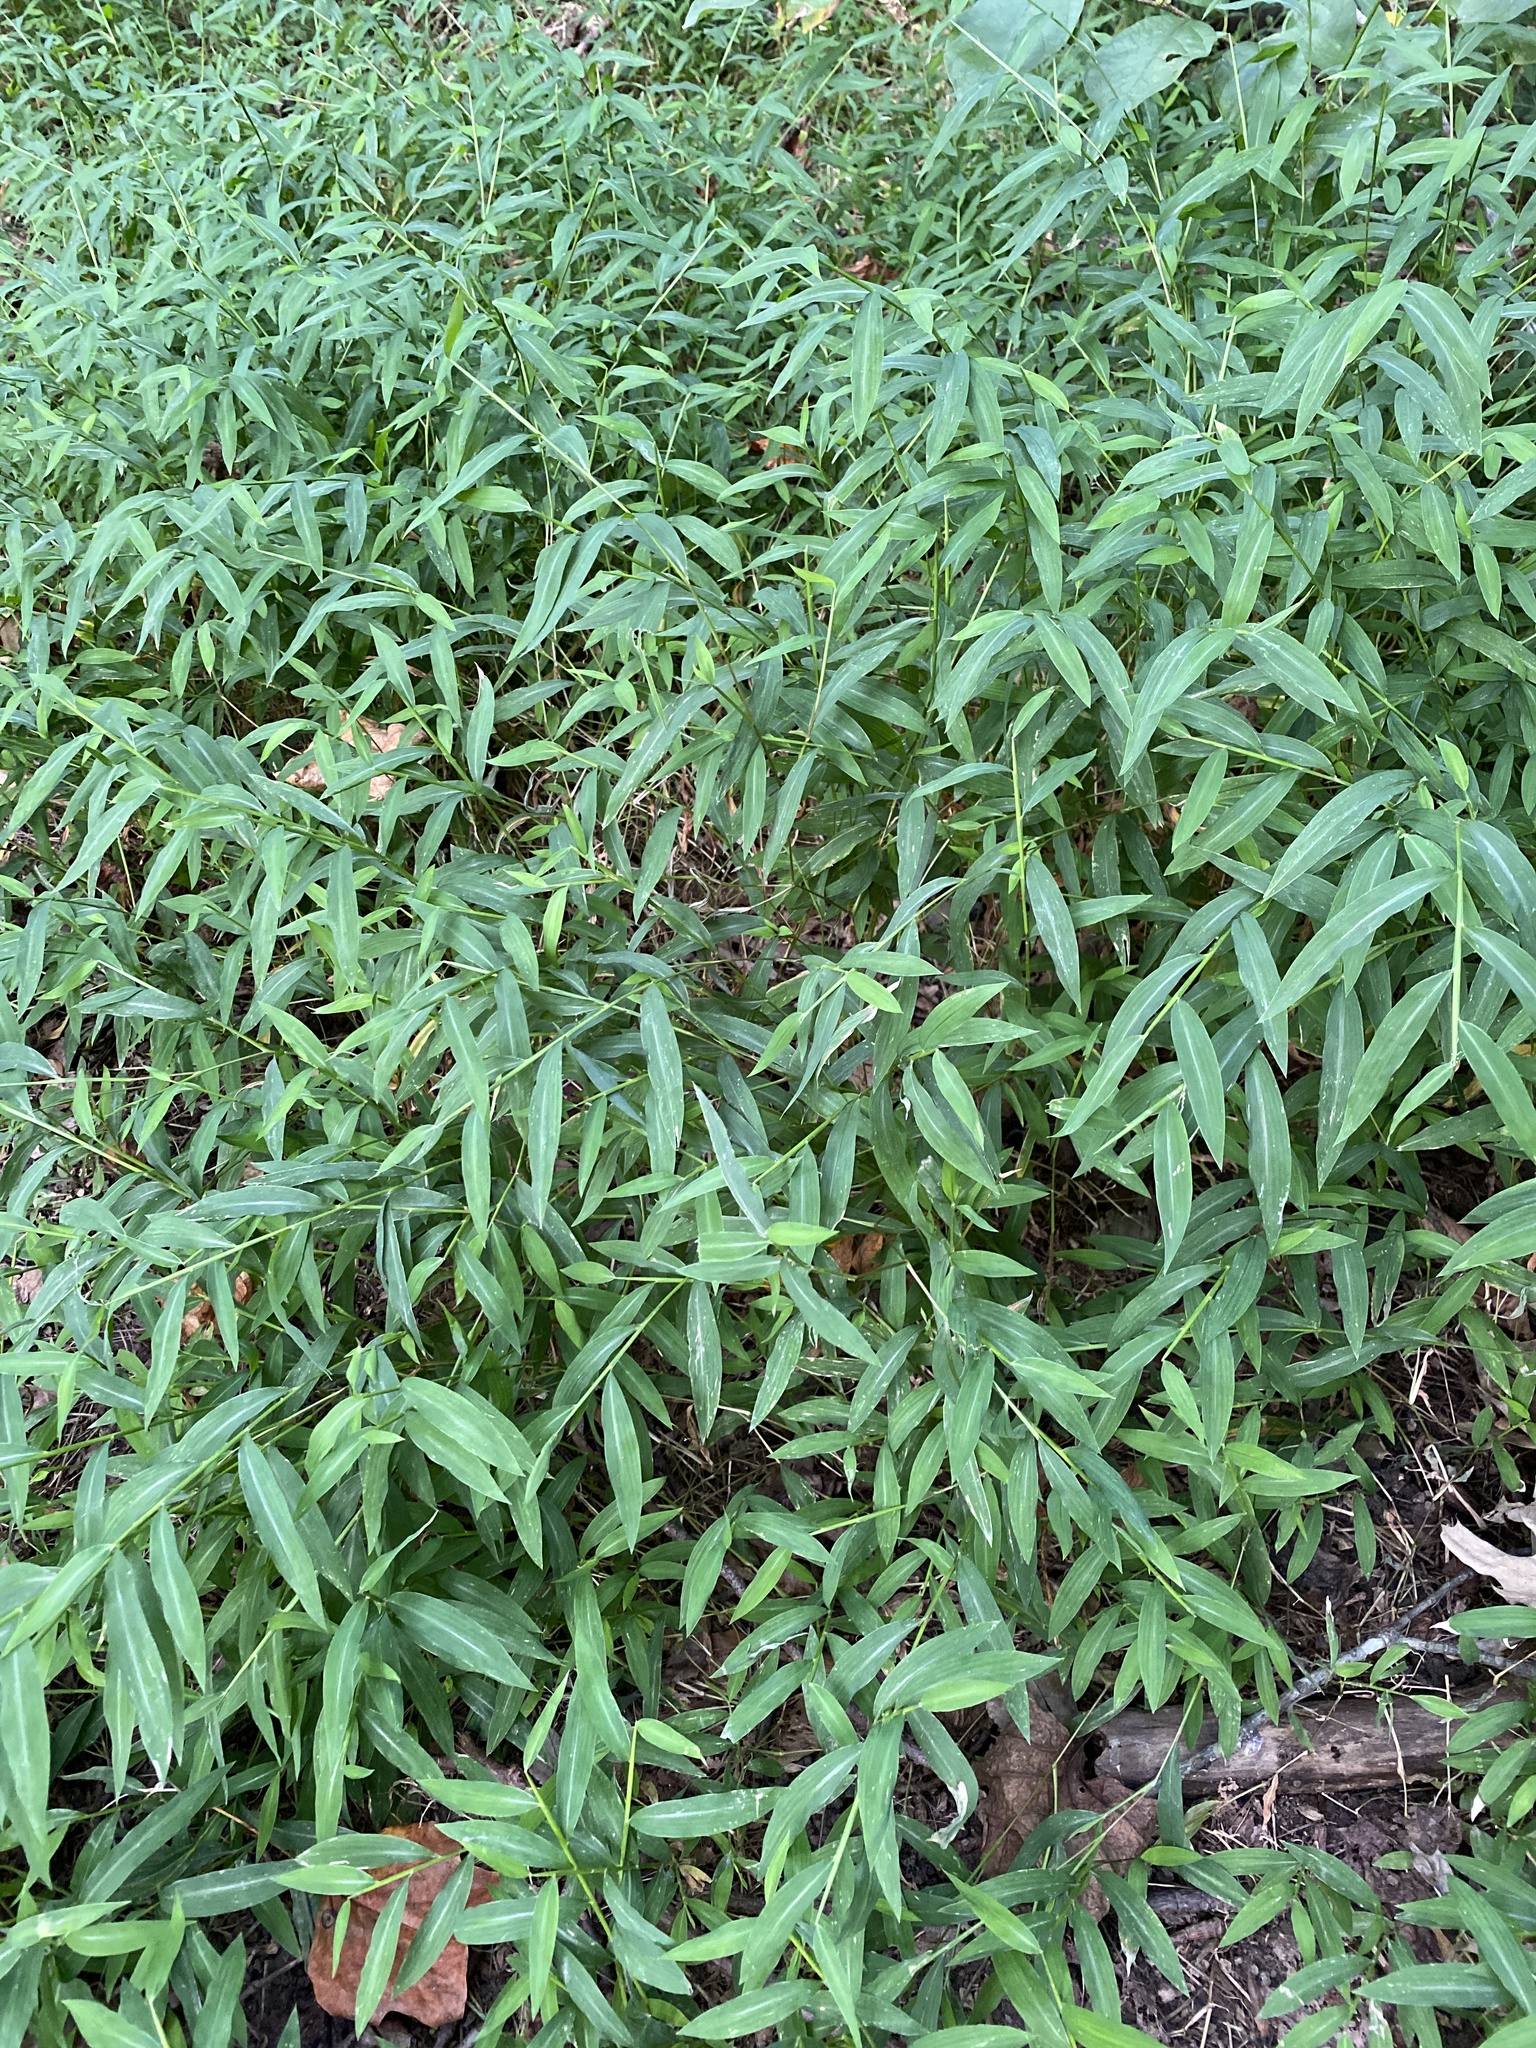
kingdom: Plantae
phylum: Tracheophyta
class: Liliopsida
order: Poales
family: Poaceae
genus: Microstegium
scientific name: Microstegium vimineum
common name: Japanese stiltgrass
